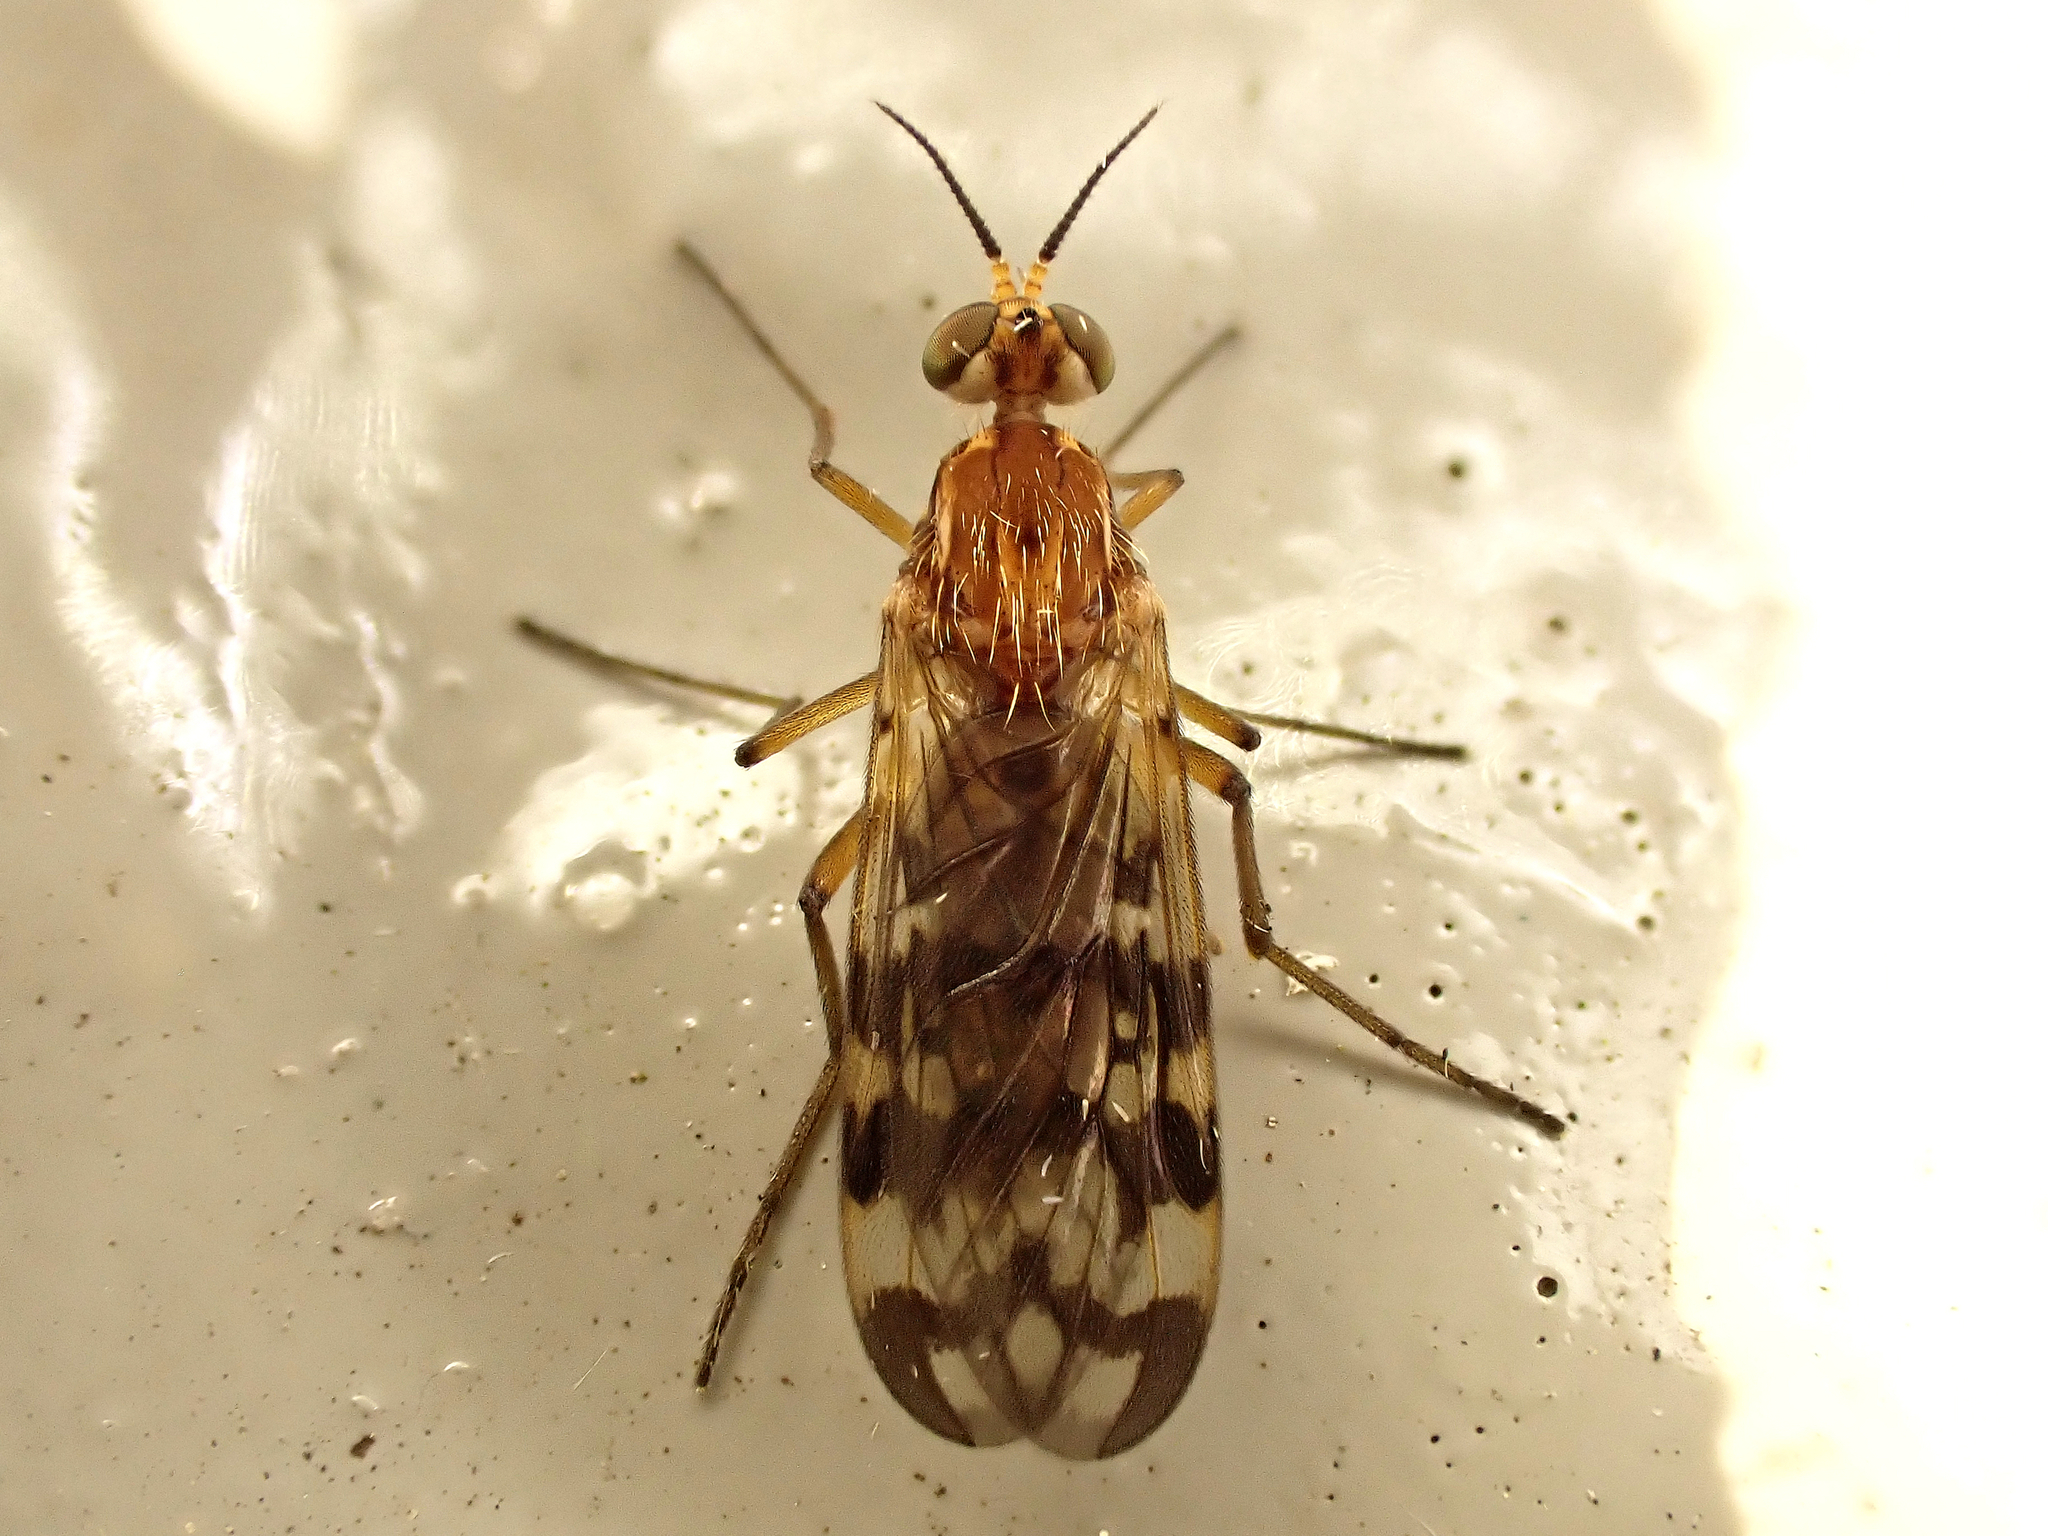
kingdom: Animalia
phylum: Arthropoda
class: Insecta
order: Diptera
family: Anisopodidae
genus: Sylvicola
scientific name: Sylvicola dubius
